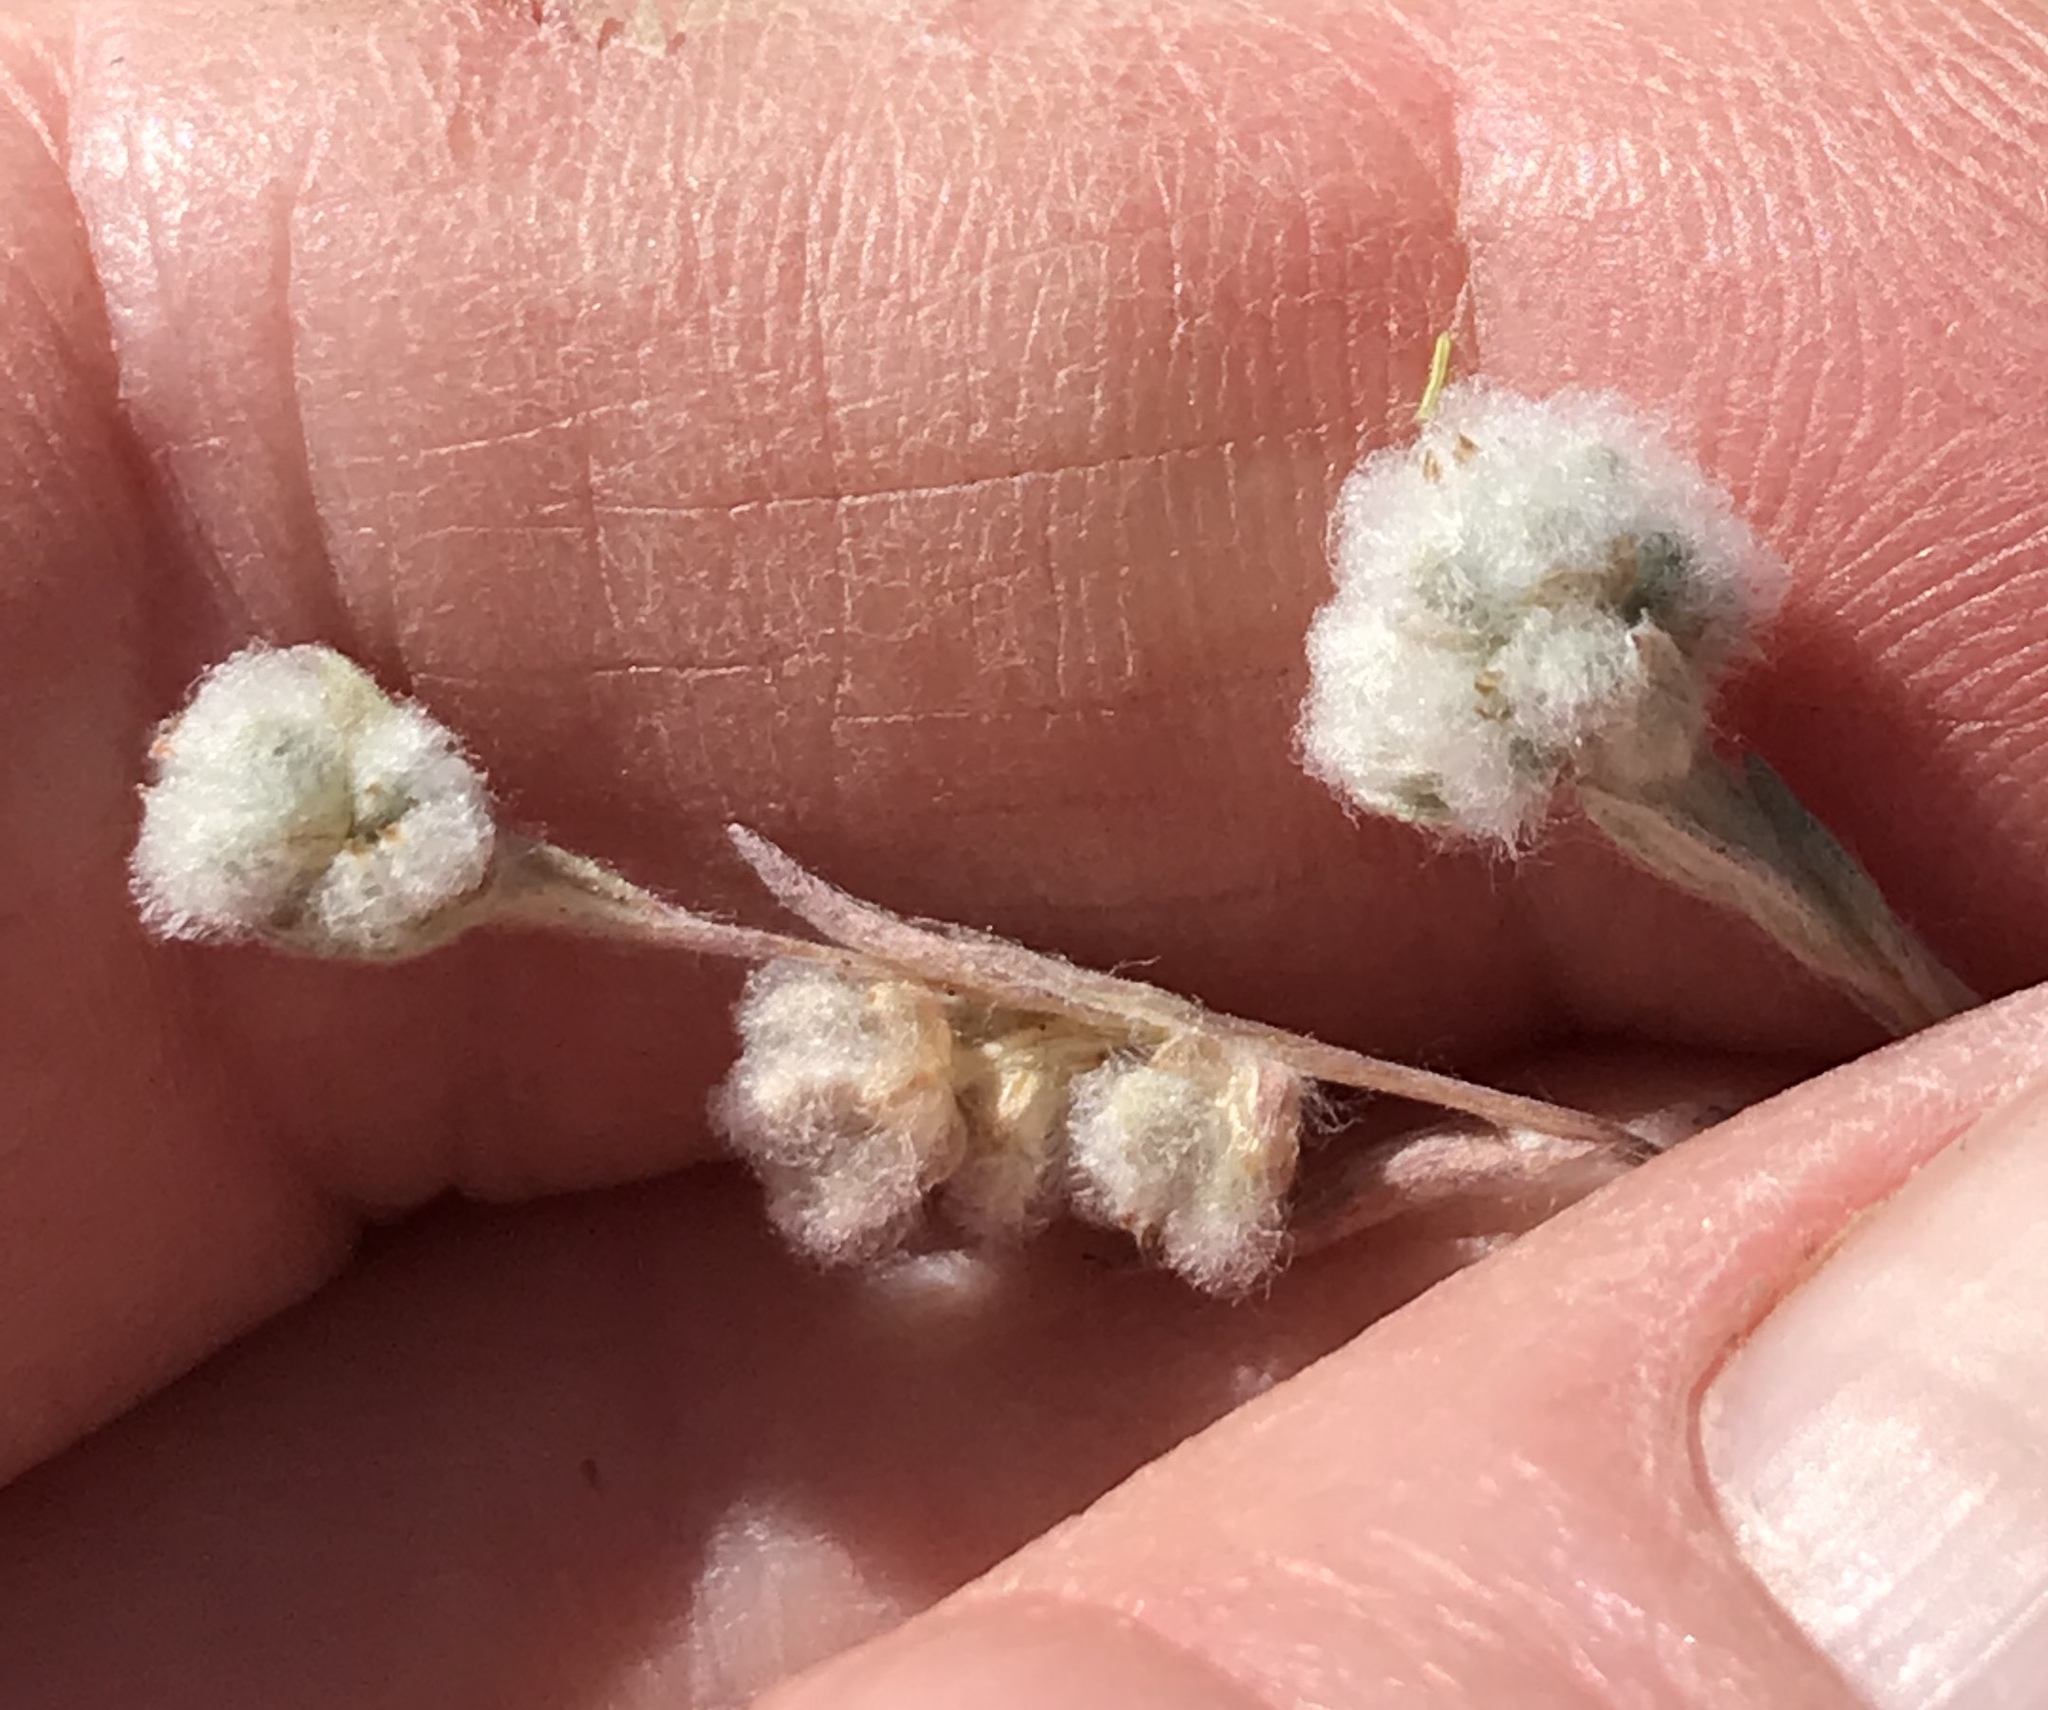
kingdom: Plantae
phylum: Tracheophyta
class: Magnoliopsida
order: Asterales
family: Asteraceae
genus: Bombycilaena
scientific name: Bombycilaena californica
